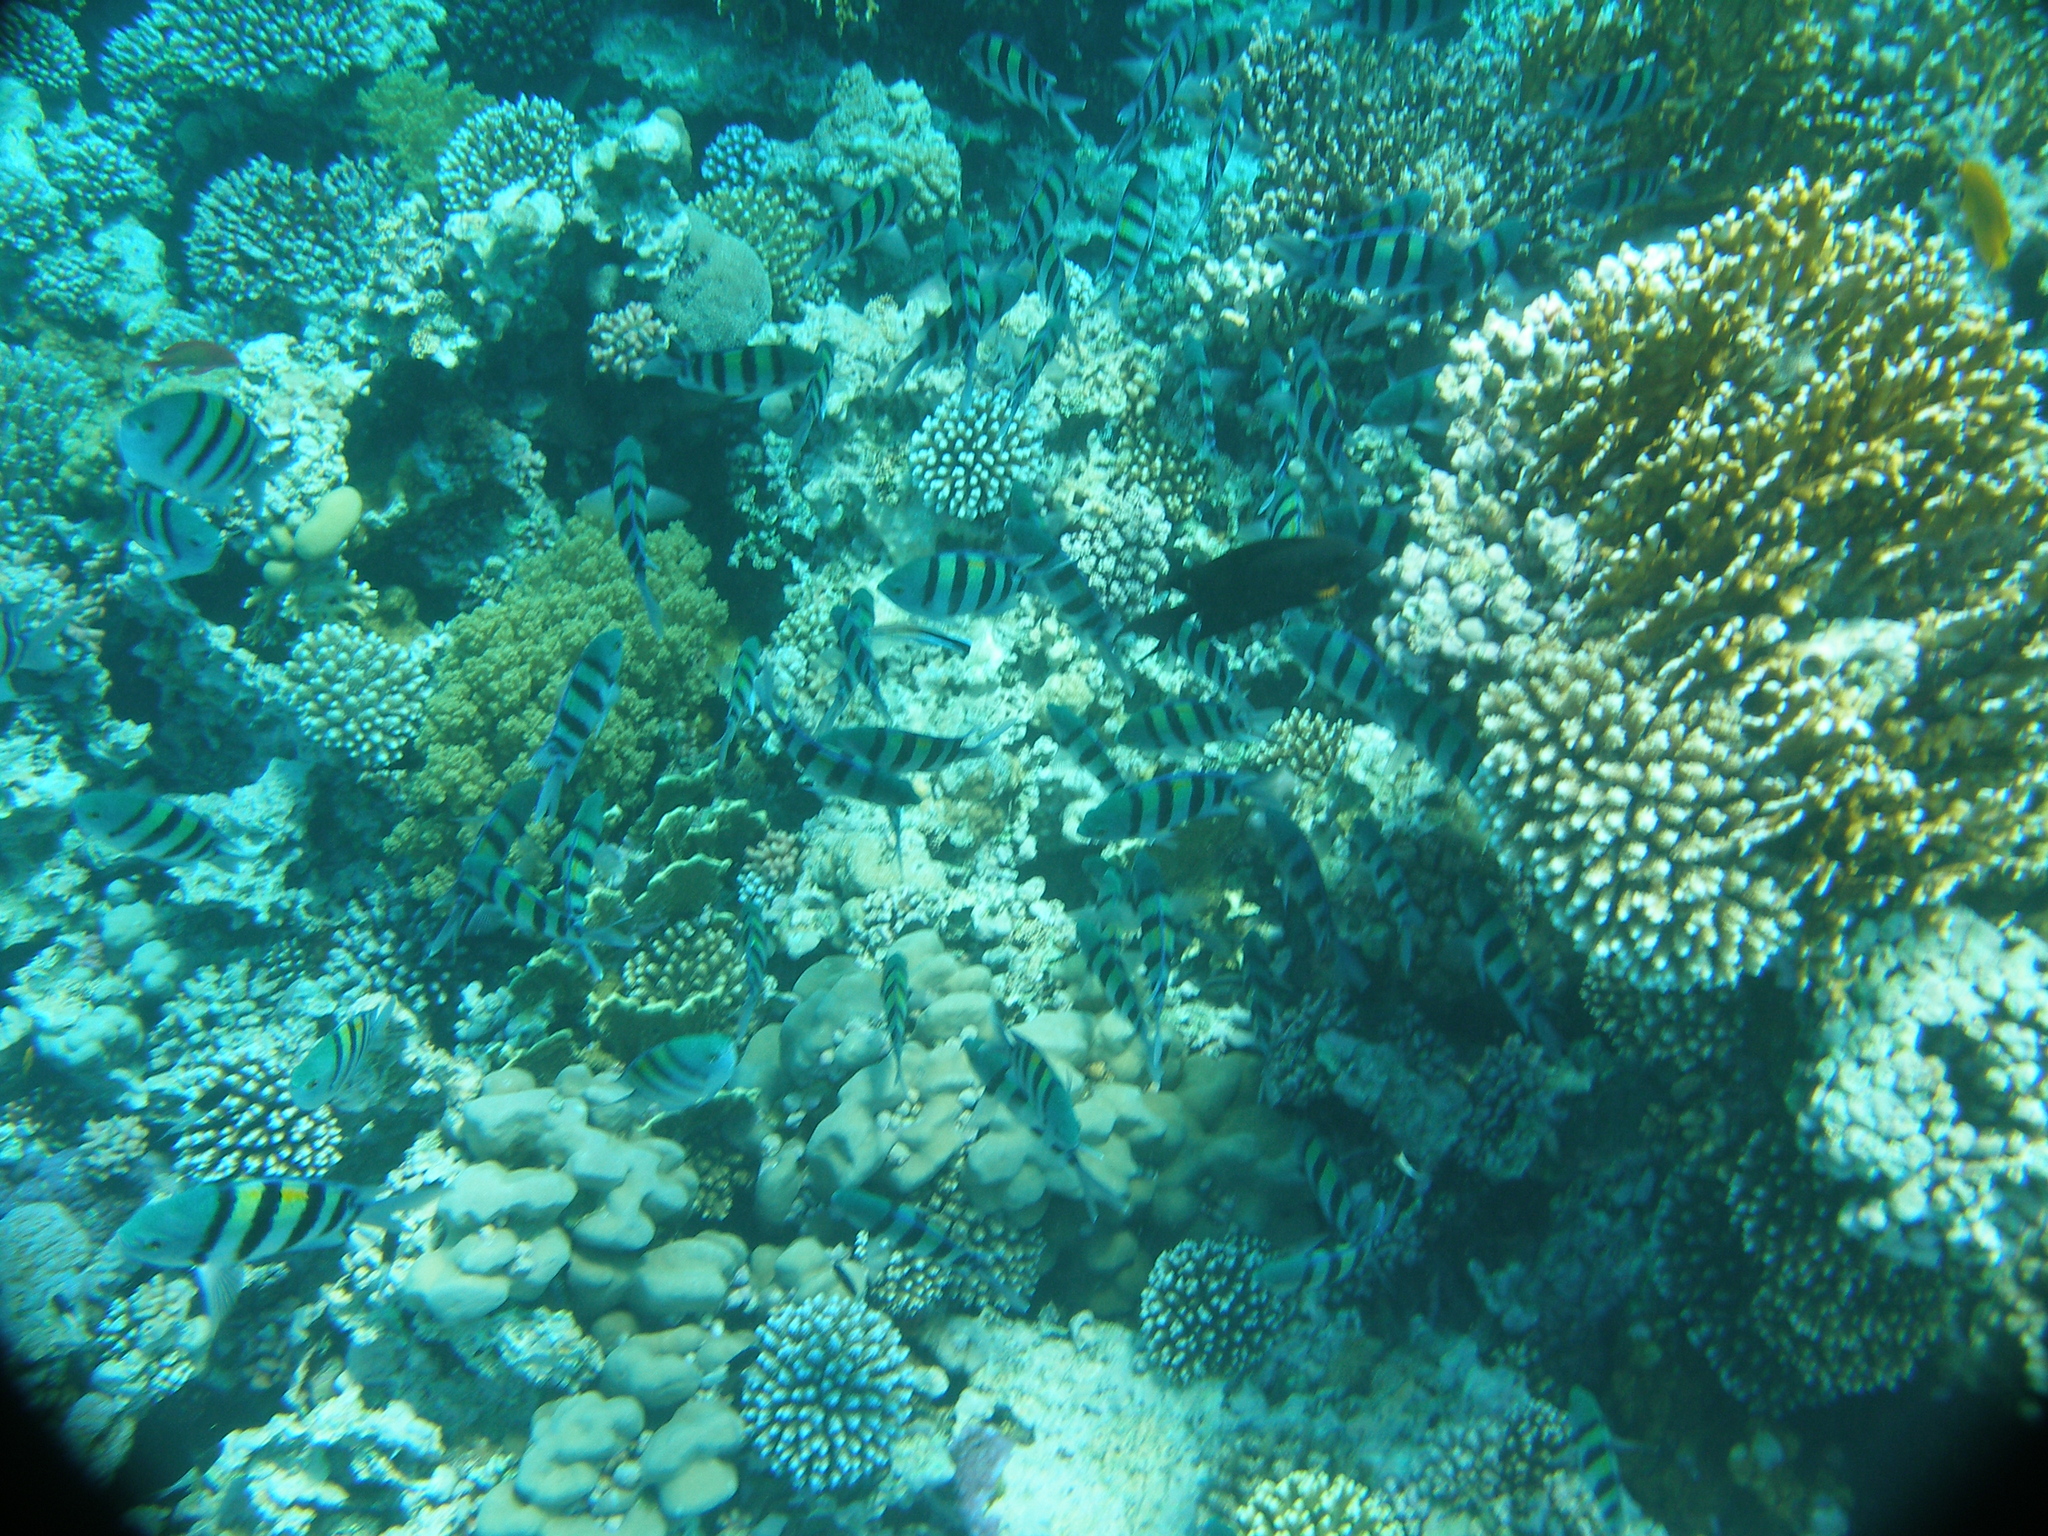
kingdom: Animalia
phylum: Chordata
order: Perciformes
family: Pomacentridae
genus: Abudefduf
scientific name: Abudefduf vaigiensis
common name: Indo-pacific sergeant
